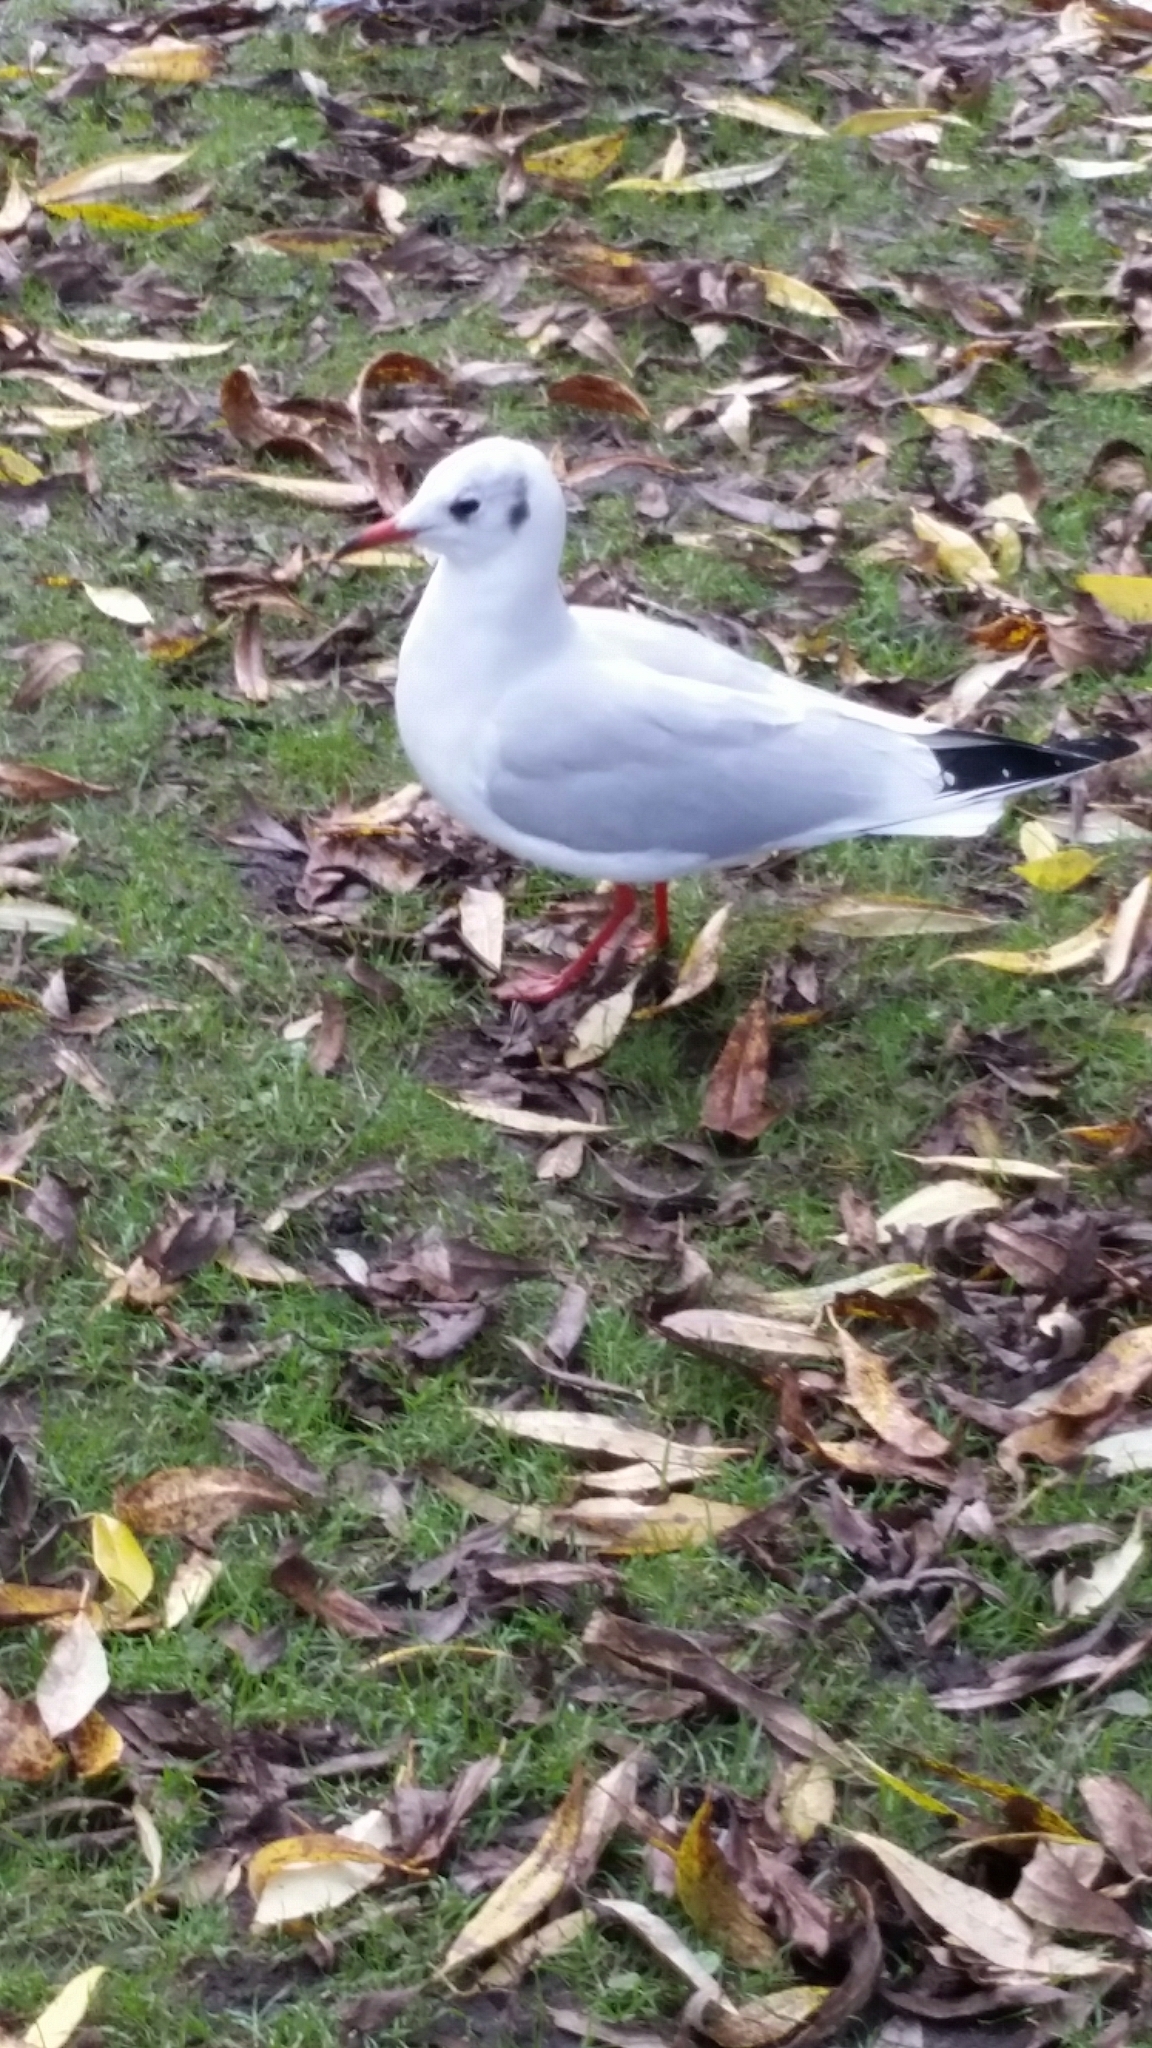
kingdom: Animalia
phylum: Chordata
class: Aves
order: Charadriiformes
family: Laridae
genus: Chroicocephalus
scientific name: Chroicocephalus ridibundus
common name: Black-headed gull
